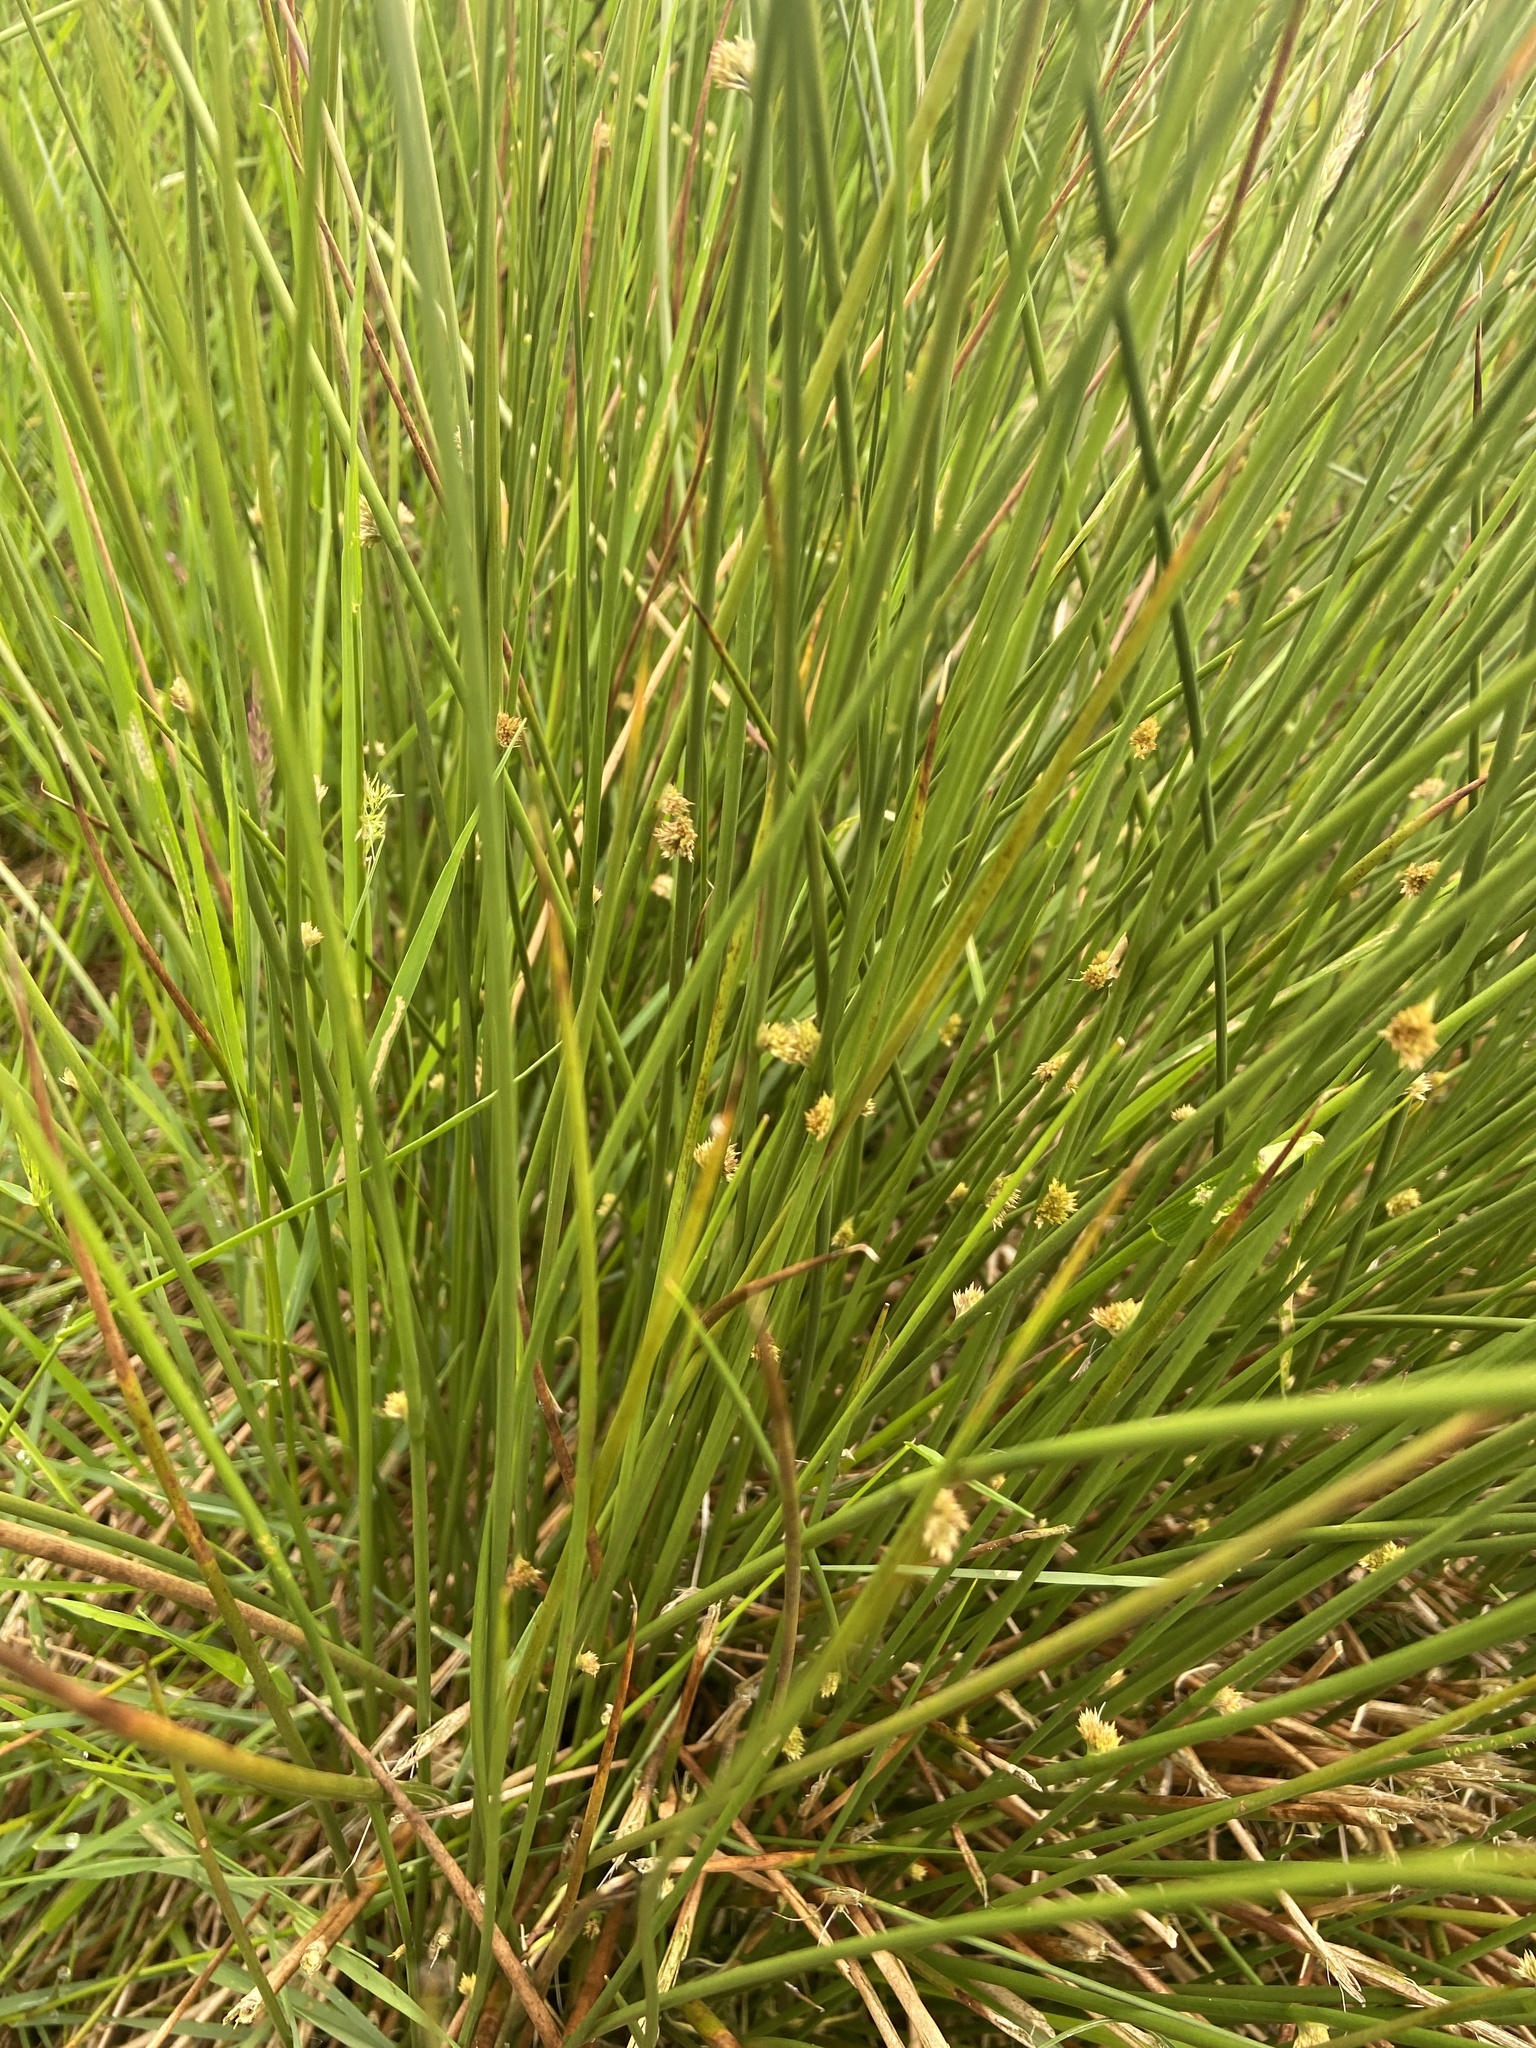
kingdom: Plantae
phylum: Tracheophyta
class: Liliopsida
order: Poales
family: Cyperaceae
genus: Trichophorum
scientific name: Trichophorum cespitosum
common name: Cespitose bulrush
